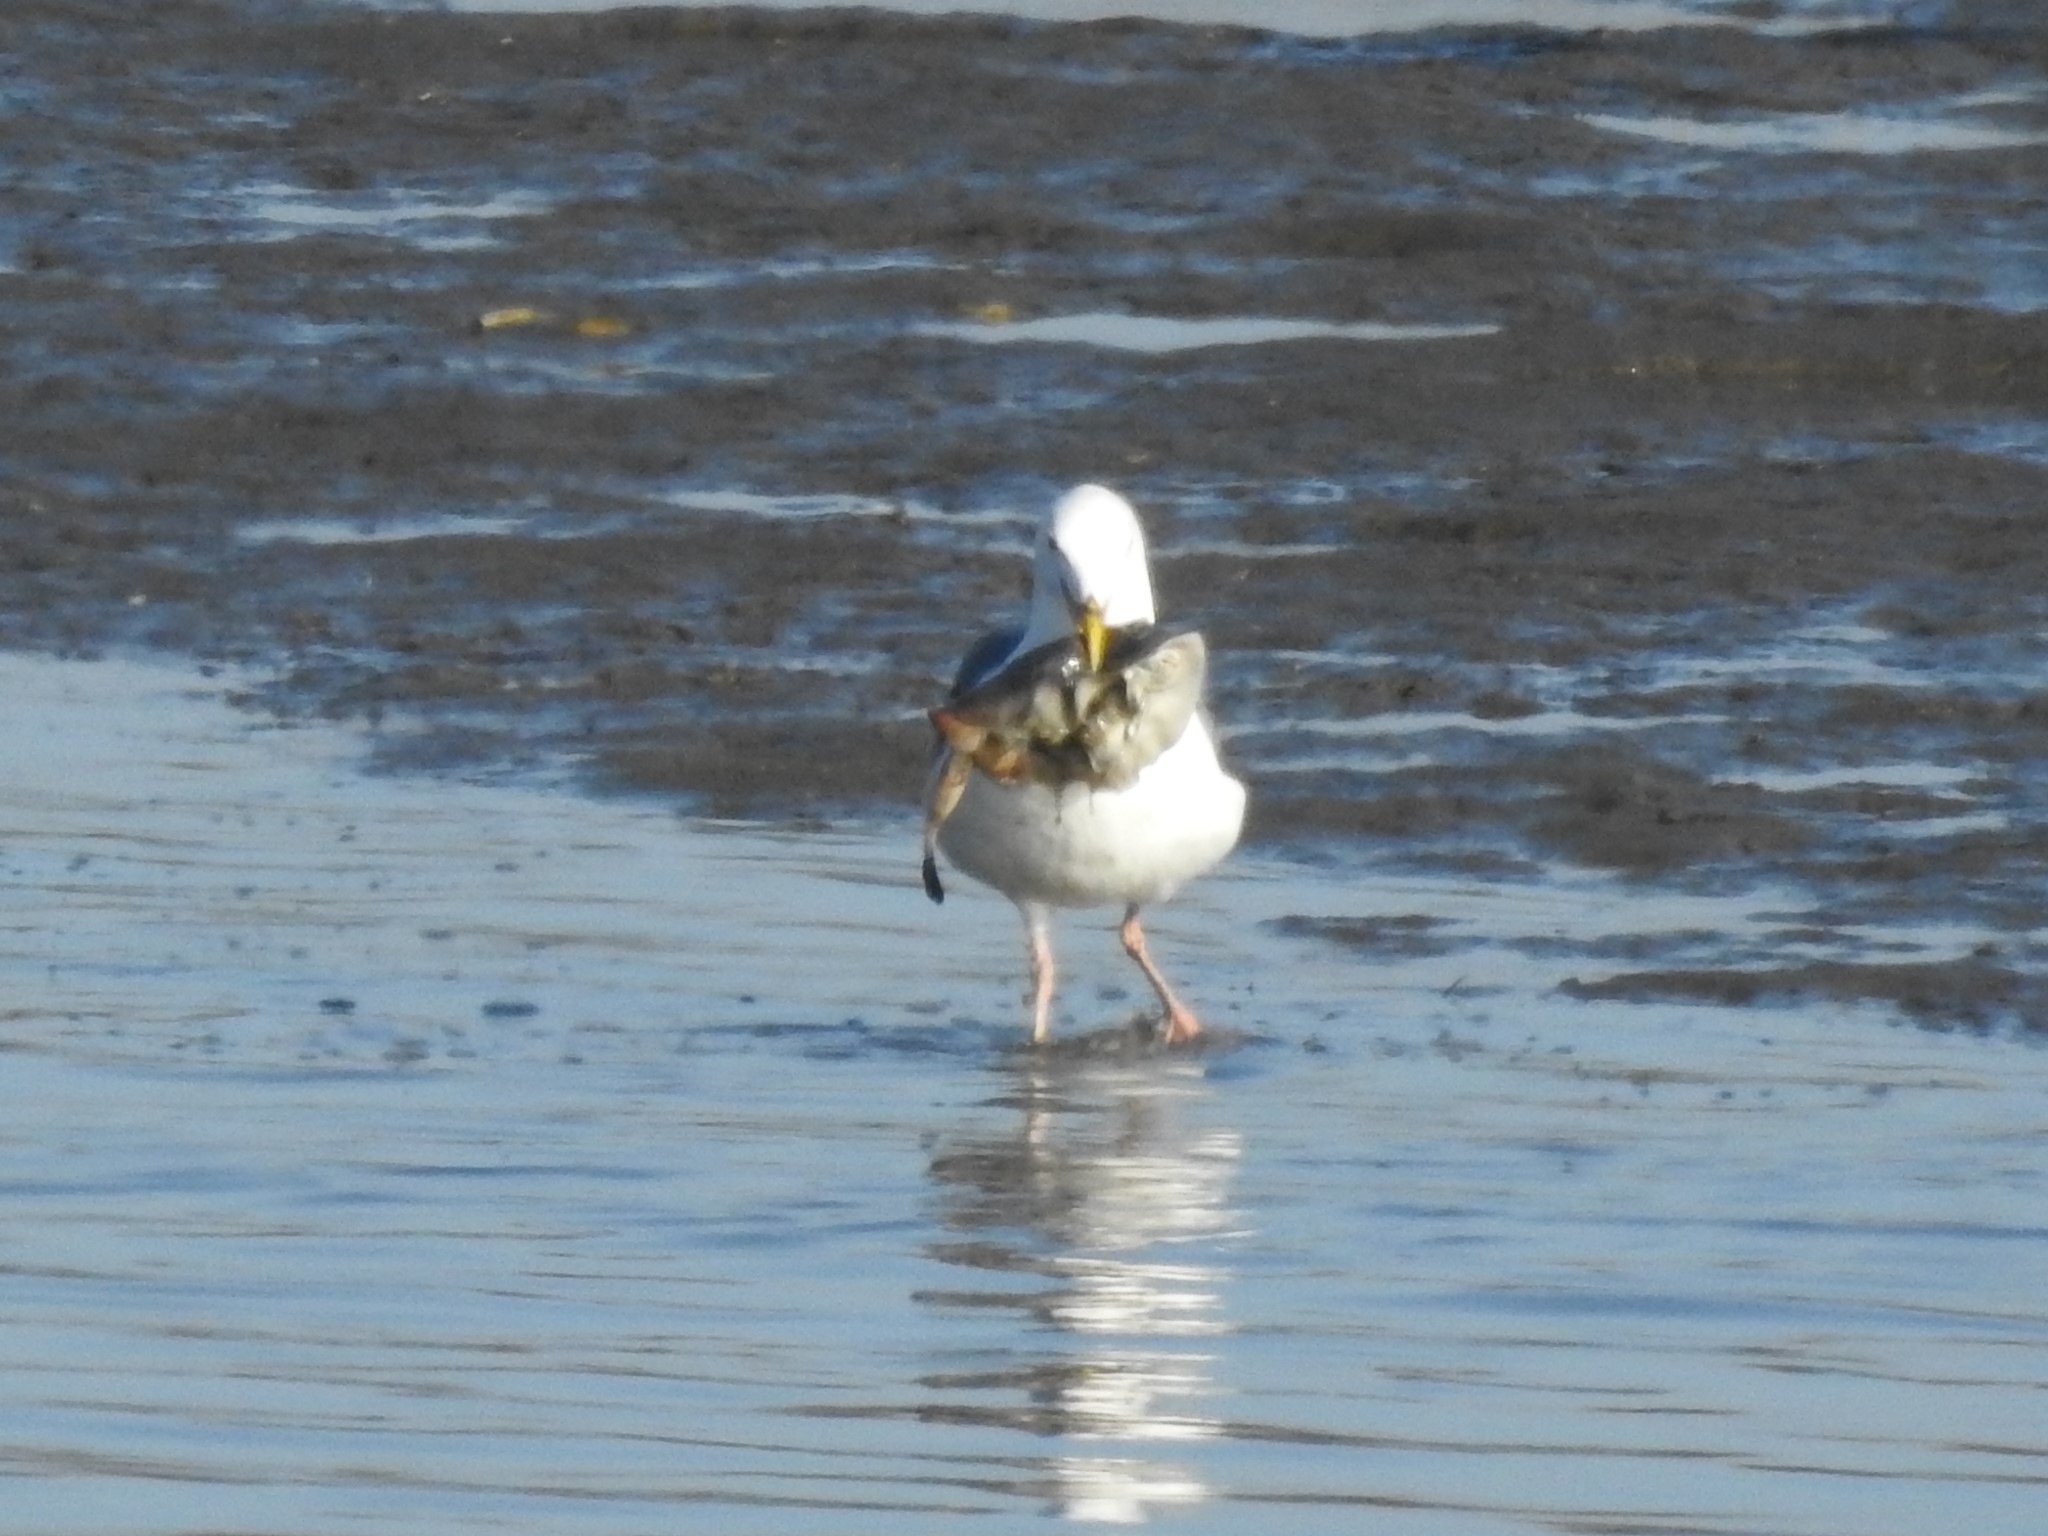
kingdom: Animalia
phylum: Chordata
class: Elasmobranchii
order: Myliobatiformes
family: Urolophidae
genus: Urolophus
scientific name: Urolophus halleri
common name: Round stingray
